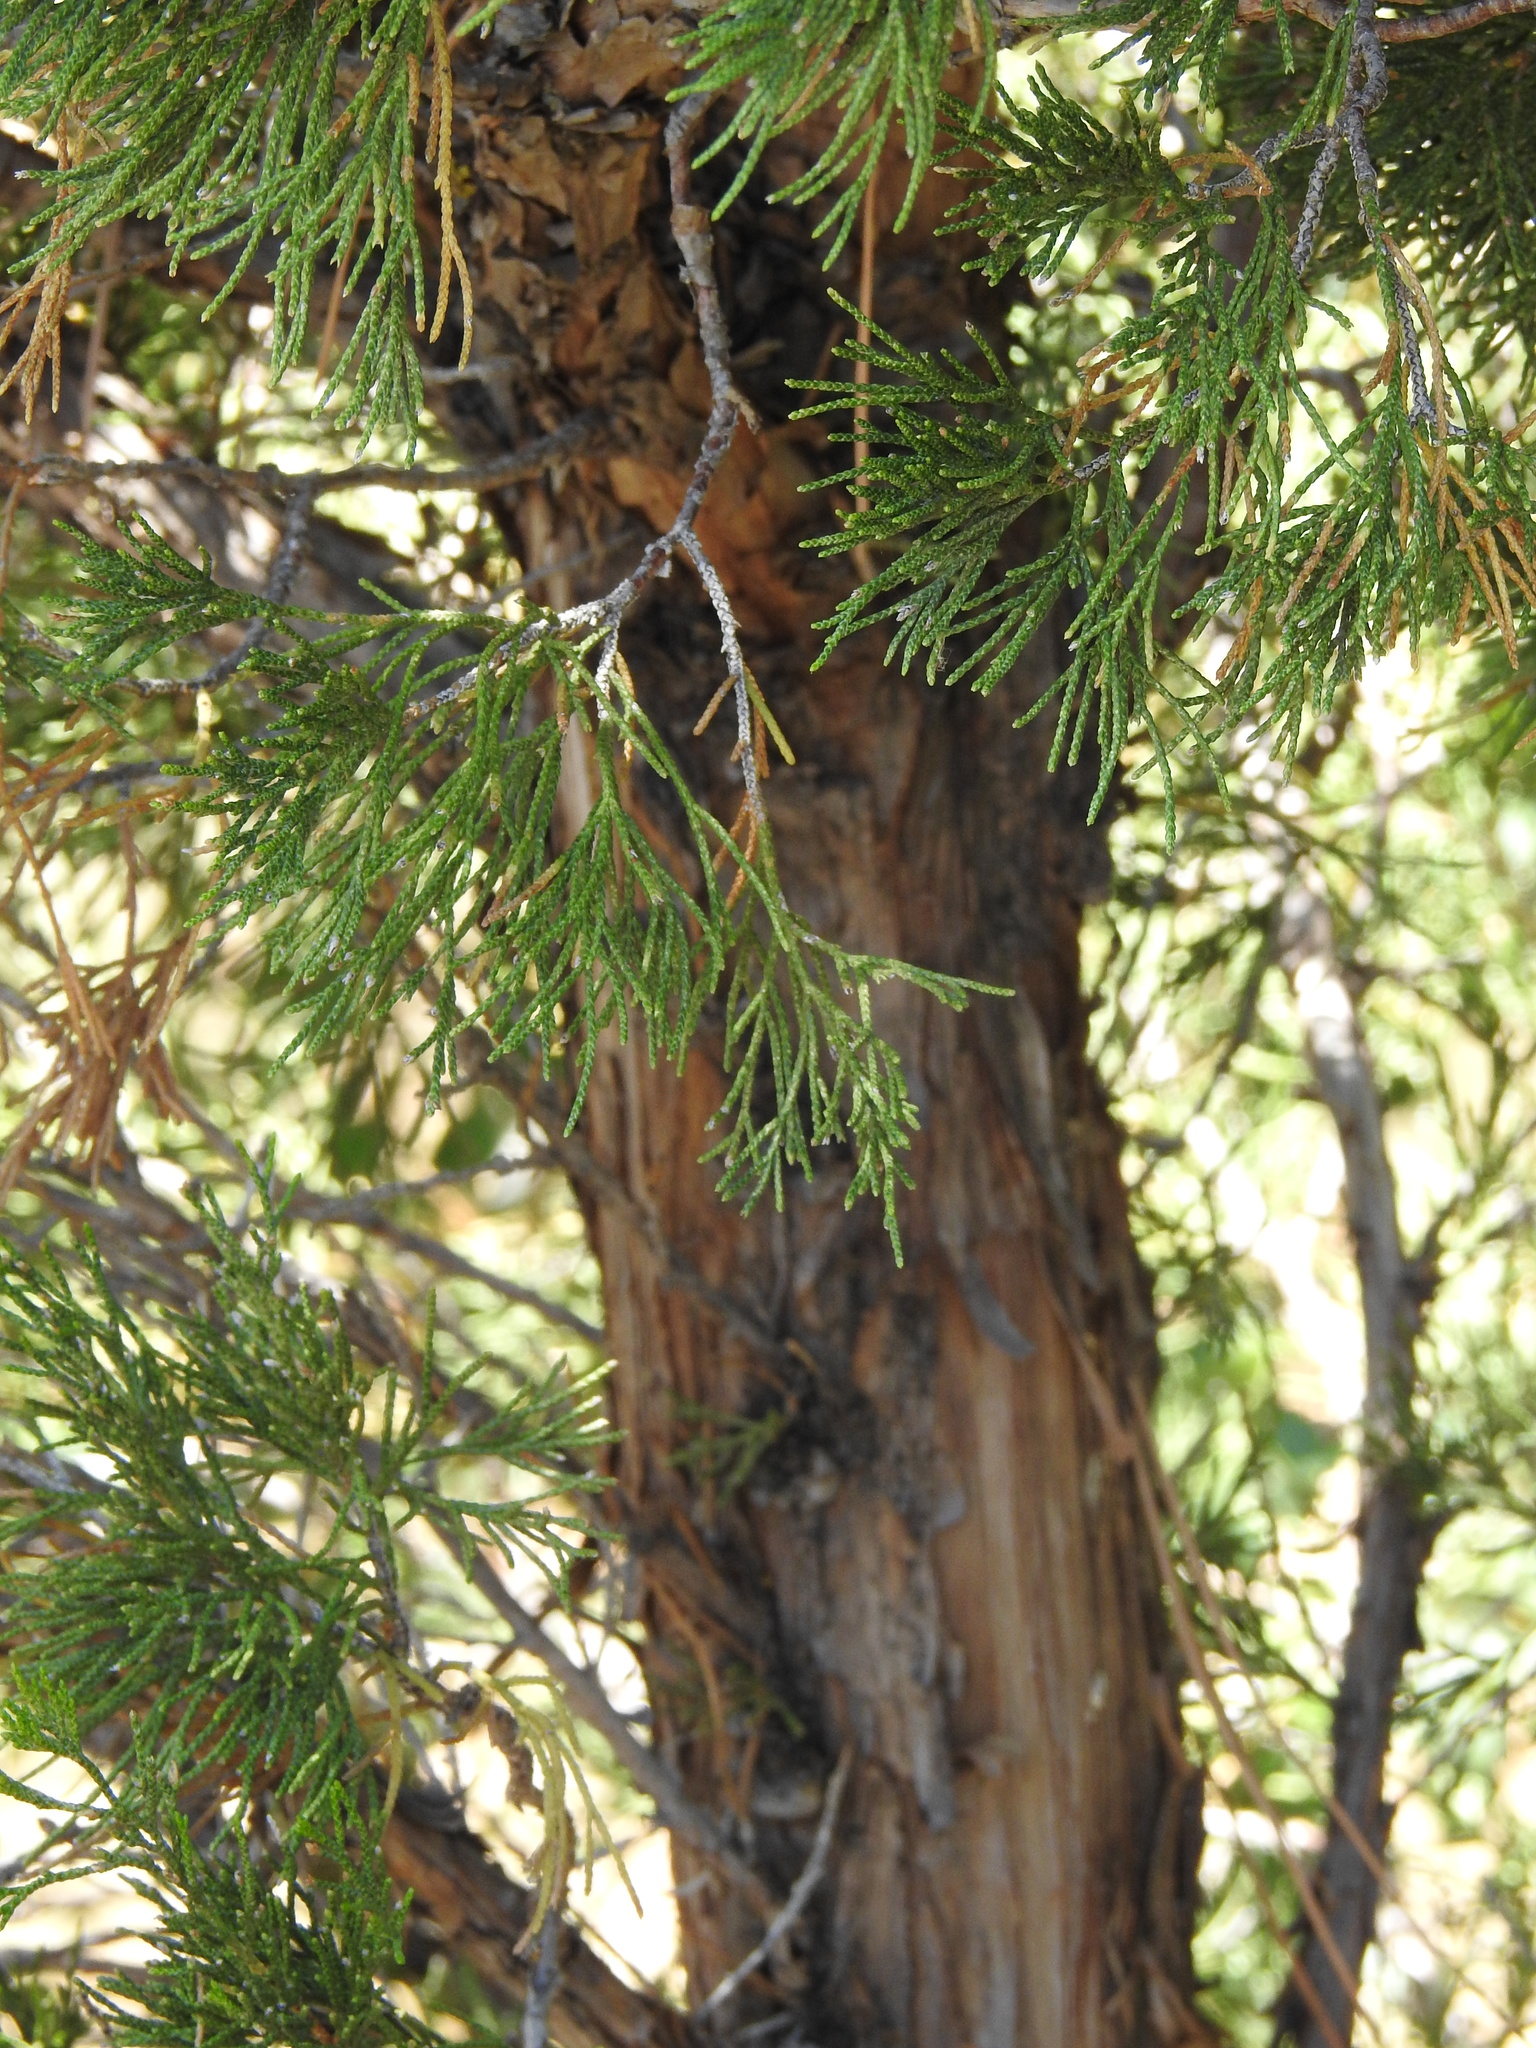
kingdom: Plantae
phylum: Tracheophyta
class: Pinopsida
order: Pinales
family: Cupressaceae
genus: Juniperus
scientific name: Juniperus monosperma
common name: One-seed juniper
